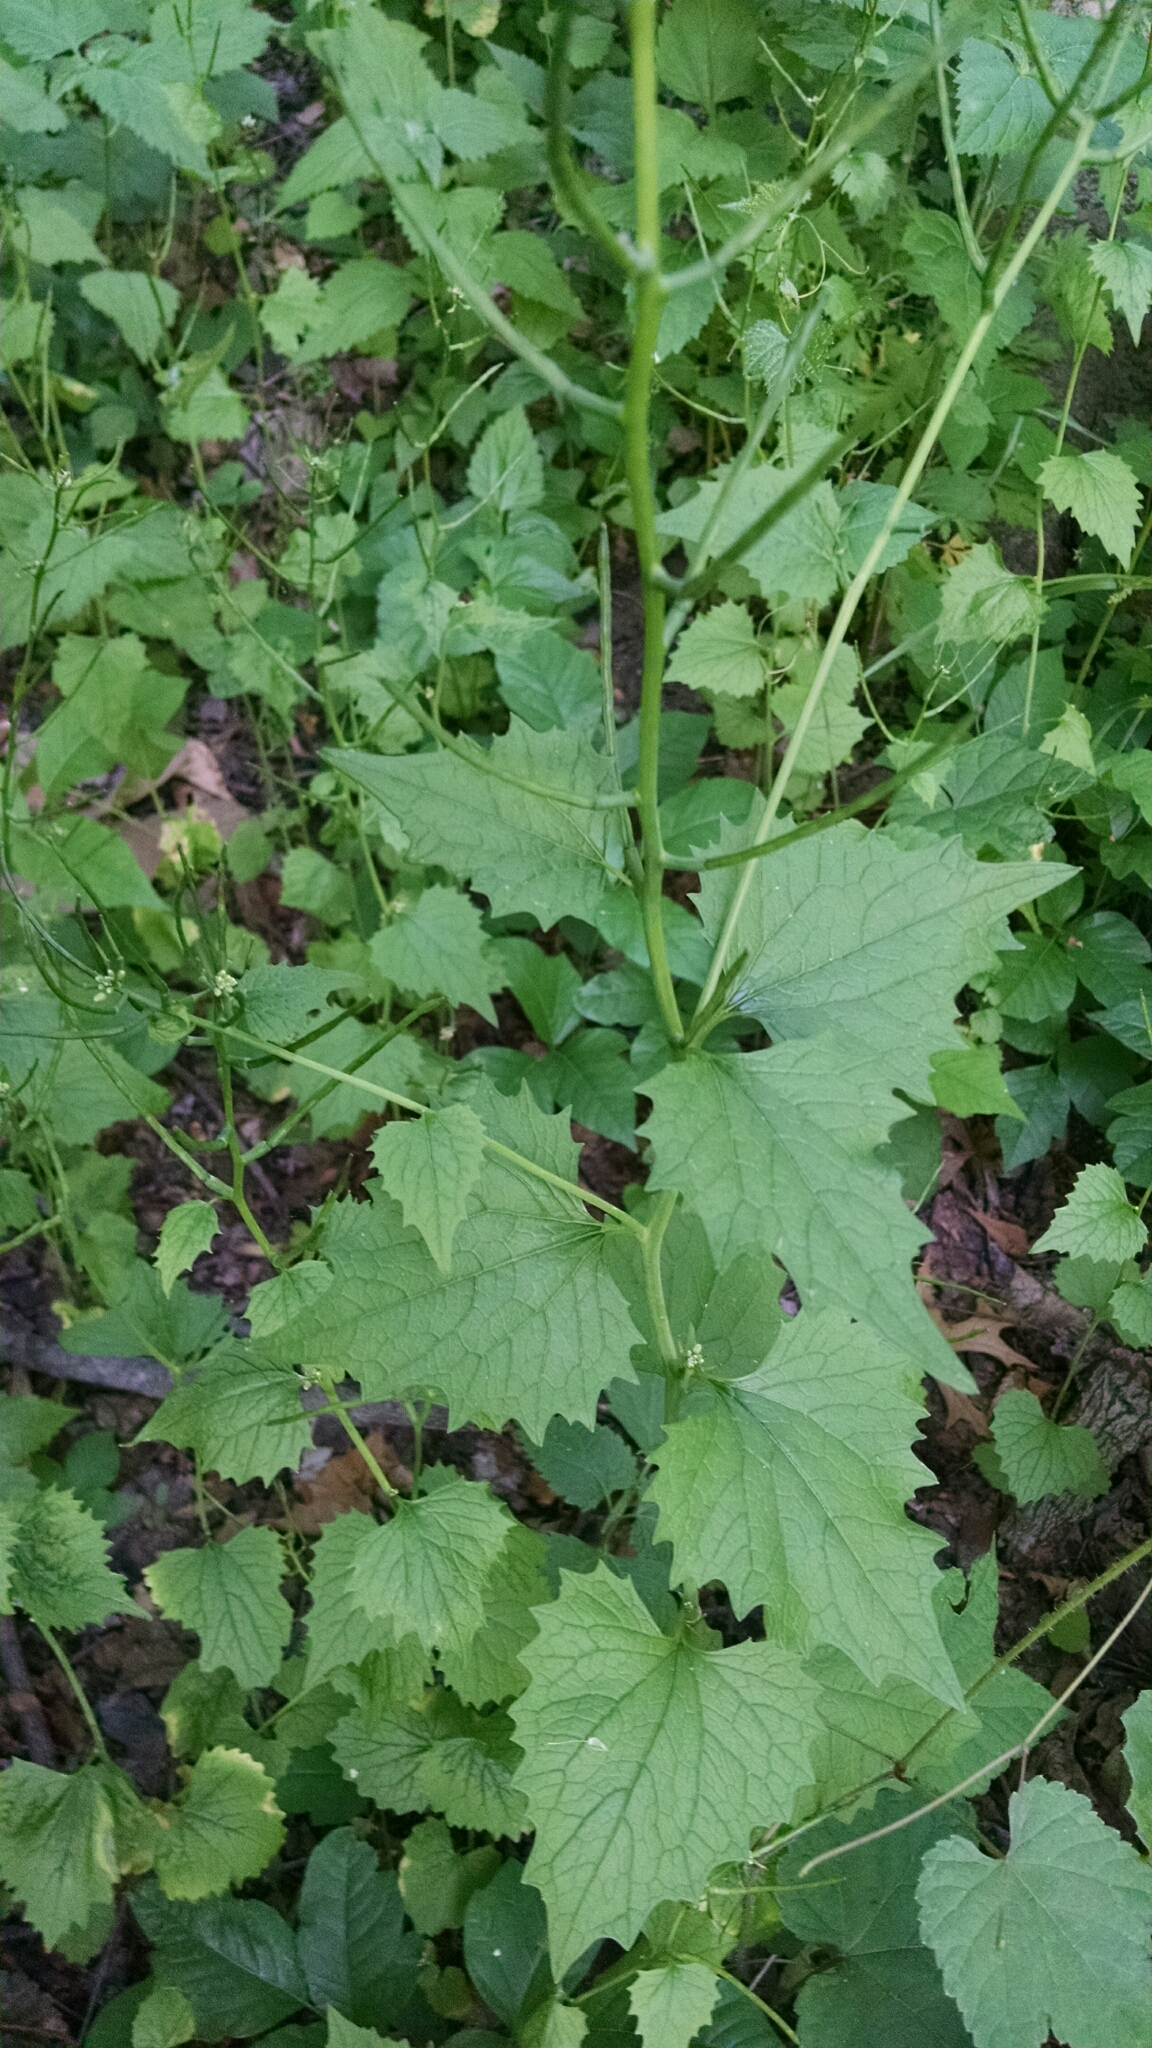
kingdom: Plantae
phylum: Tracheophyta
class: Magnoliopsida
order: Brassicales
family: Brassicaceae
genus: Alliaria
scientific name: Alliaria petiolata
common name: Garlic mustard
